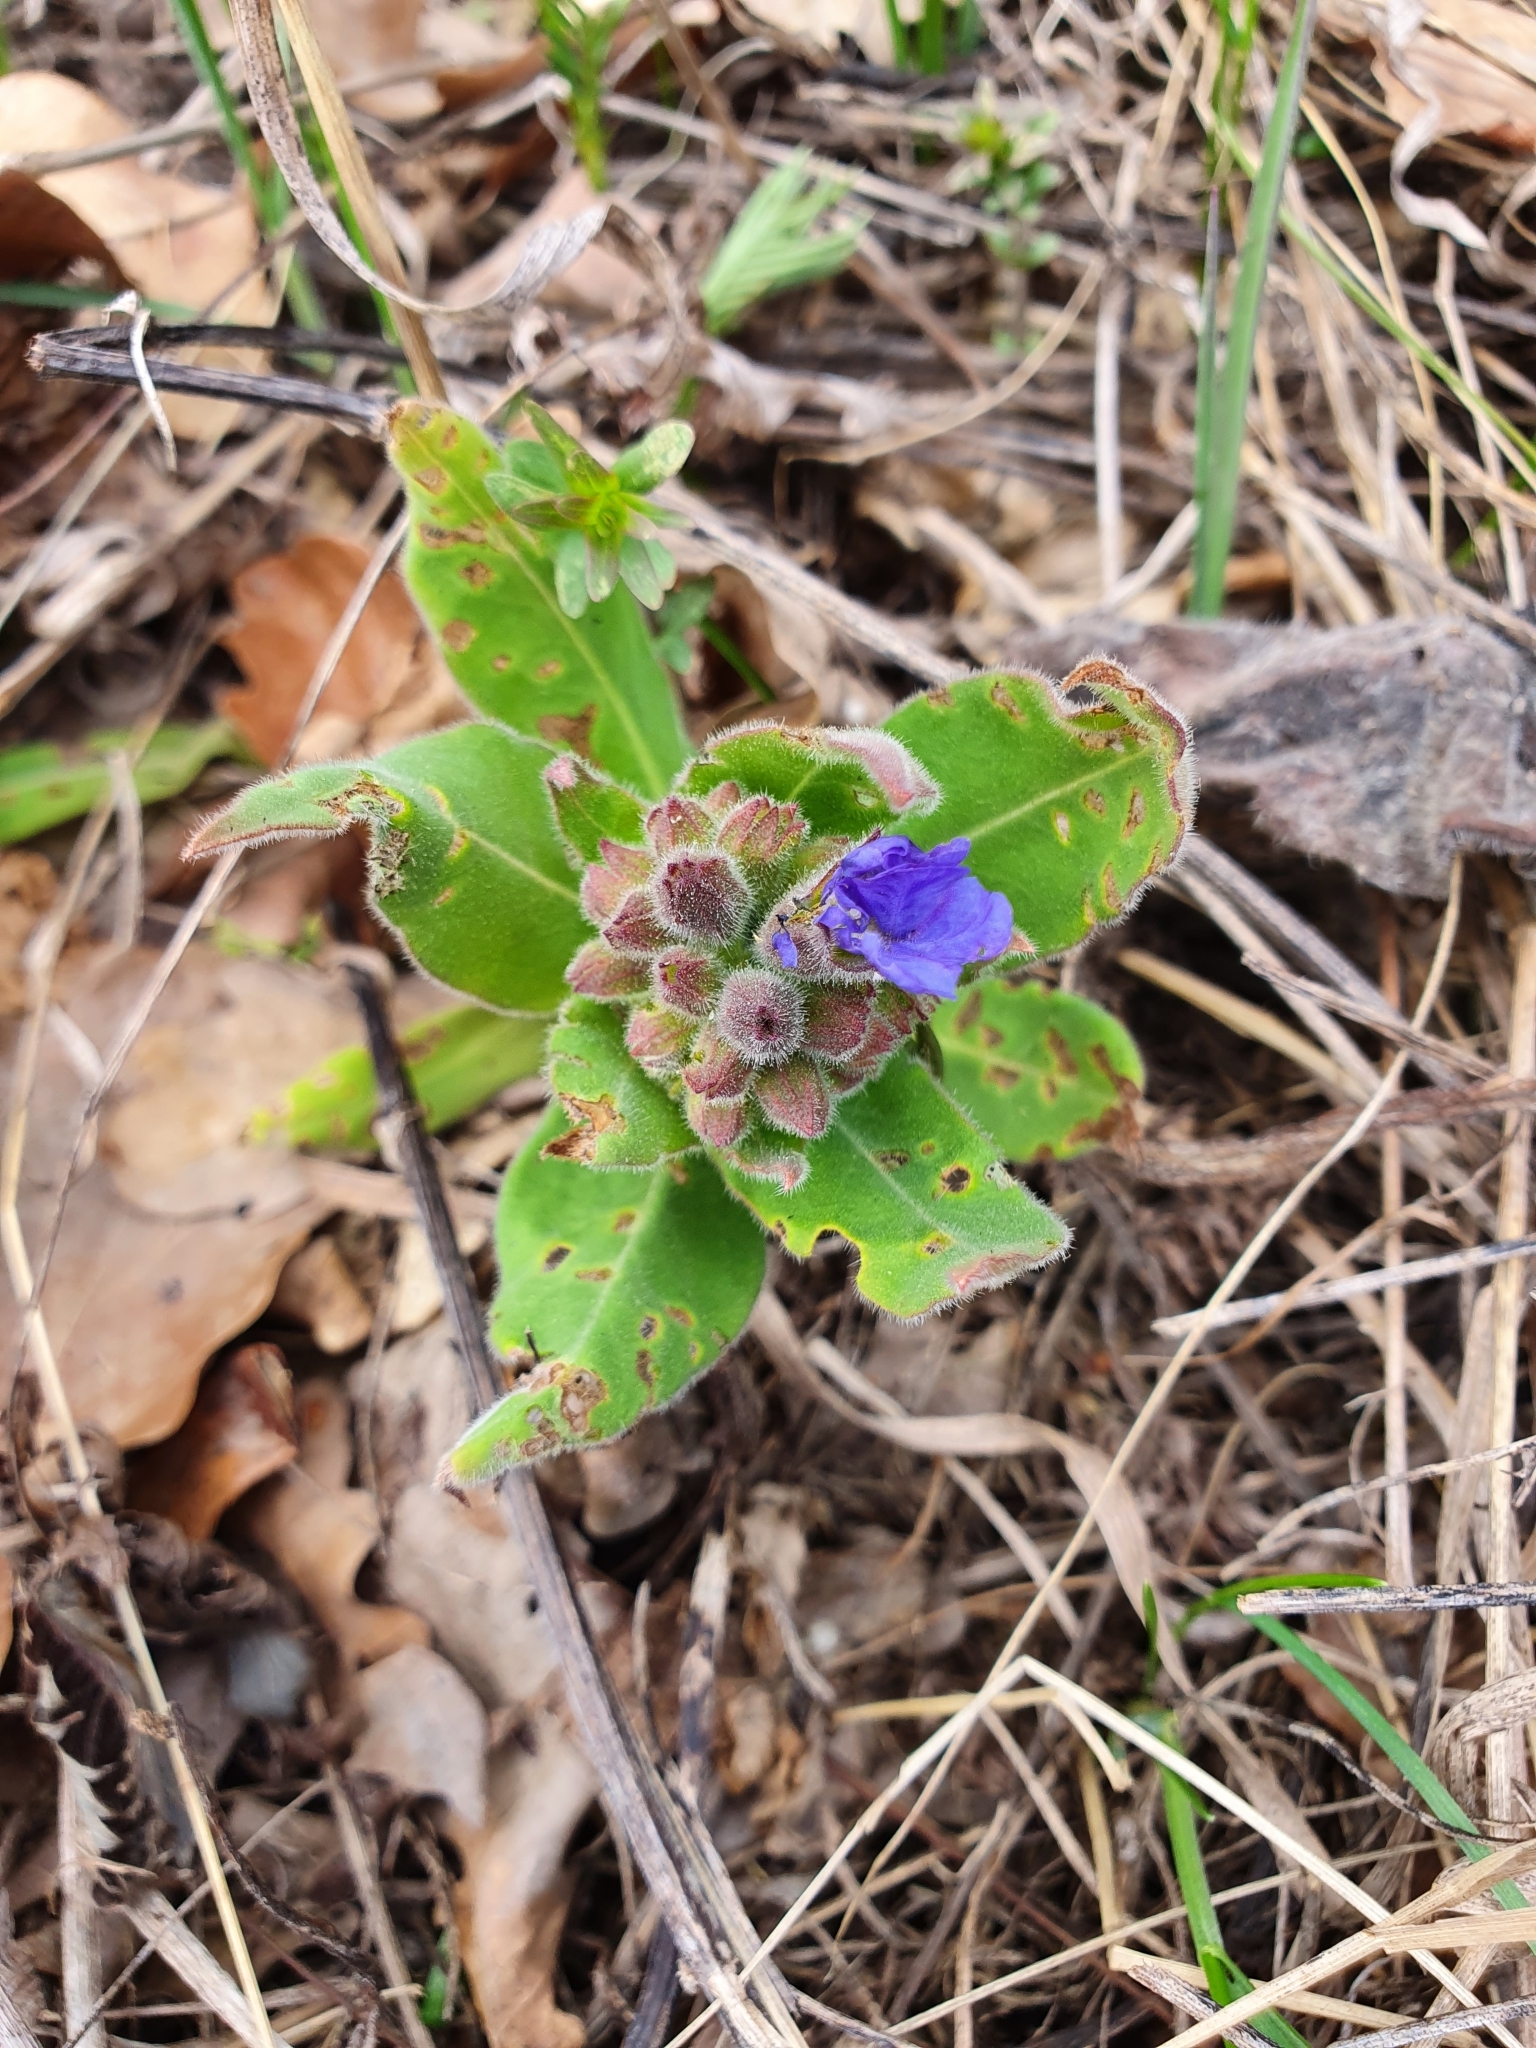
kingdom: Plantae
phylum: Tracheophyta
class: Magnoliopsida
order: Boraginales
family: Boraginaceae
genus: Pulmonaria
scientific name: Pulmonaria mollis
